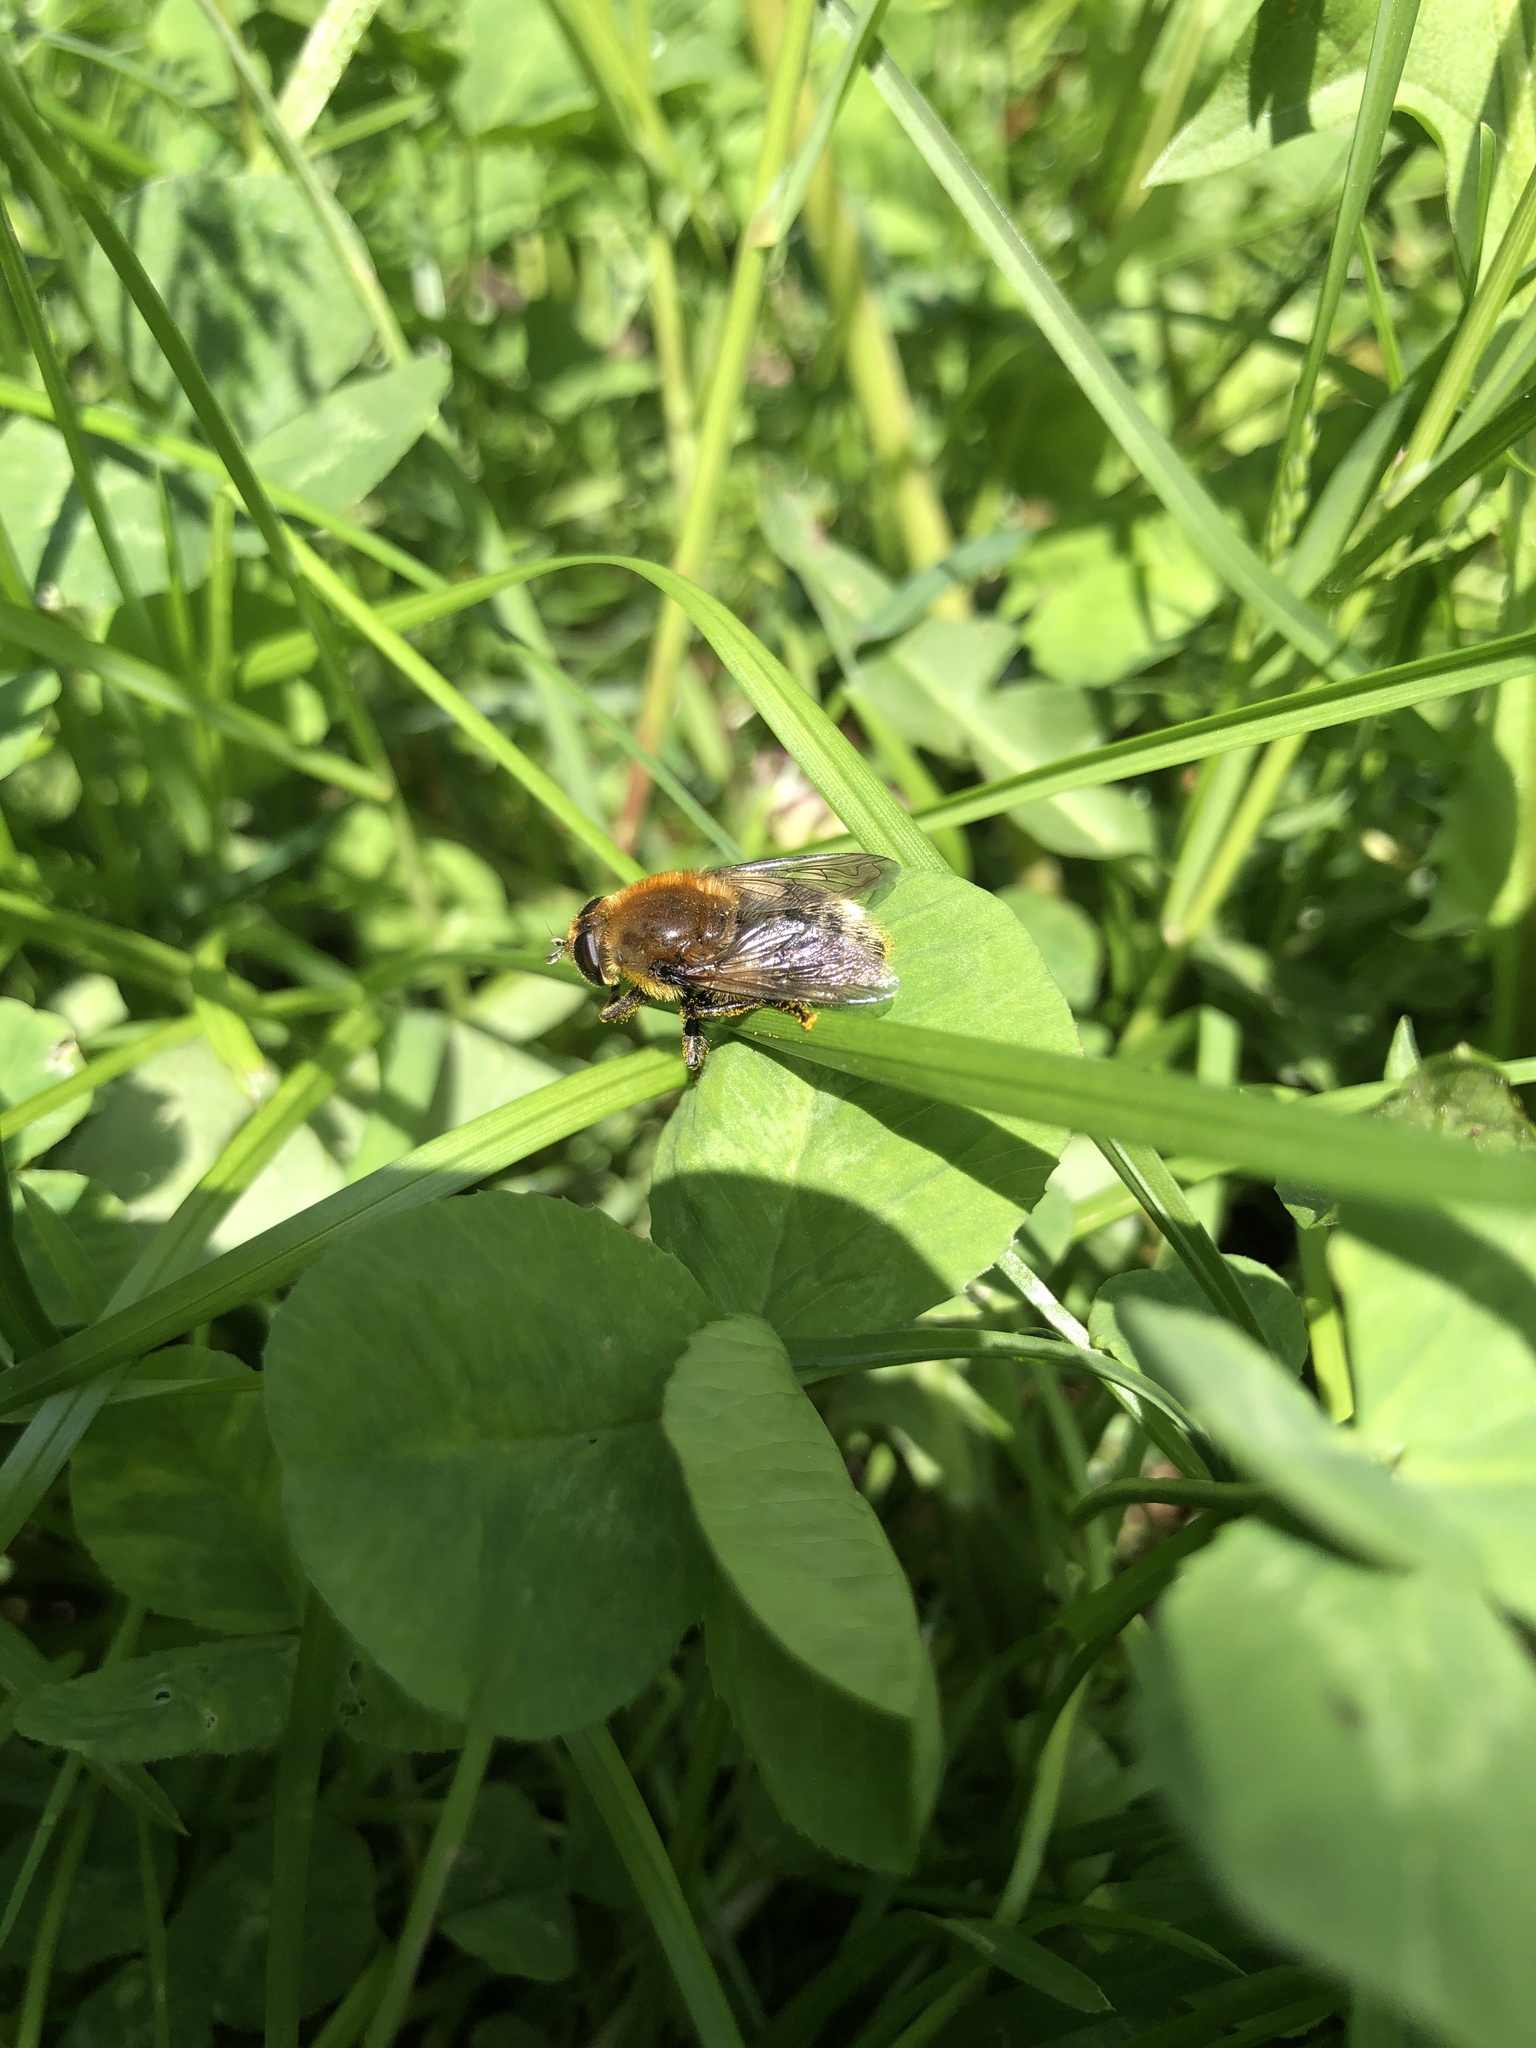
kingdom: Animalia
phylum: Arthropoda
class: Insecta
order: Diptera
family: Syrphidae
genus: Merodon
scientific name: Merodon equestris
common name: Greater bulb-fly
